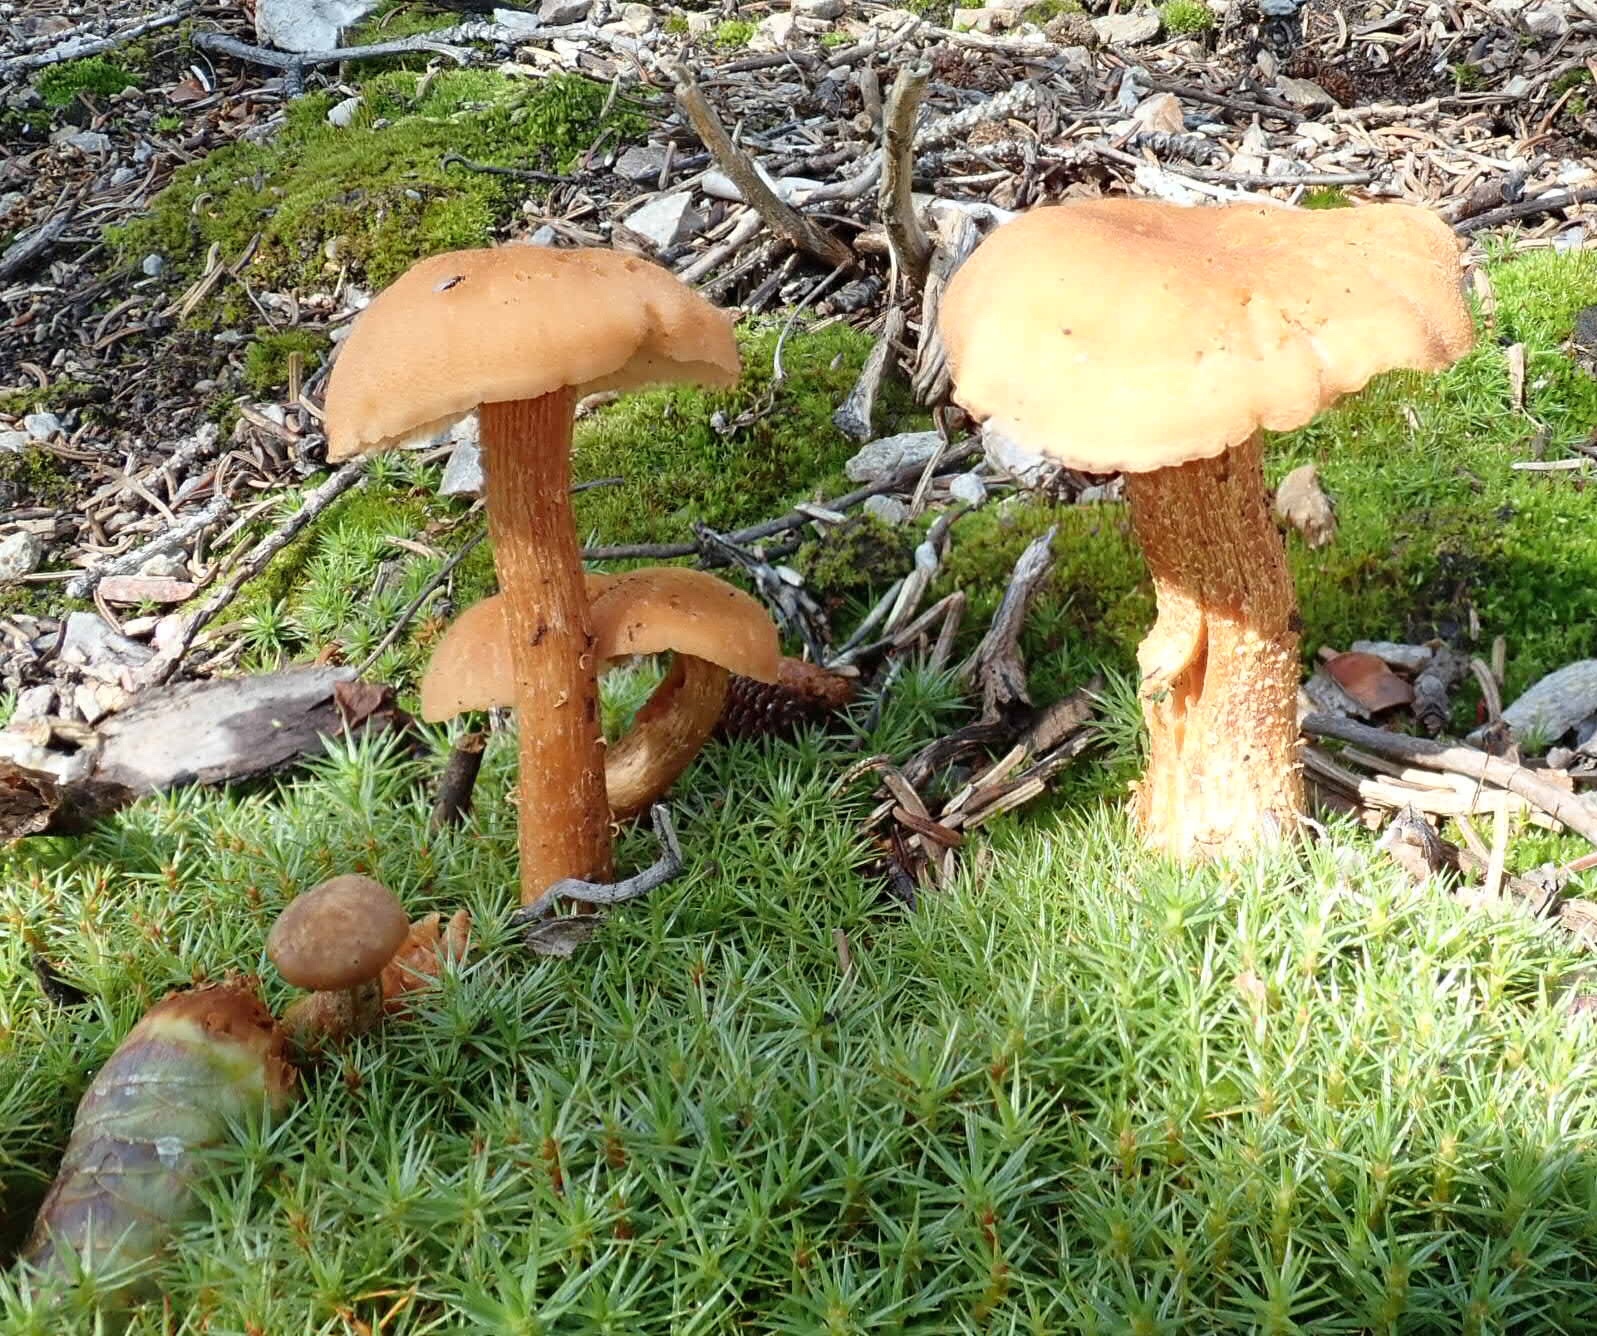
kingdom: Fungi
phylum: Basidiomycota
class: Agaricomycetes
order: Agaricales
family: Hydnangiaceae
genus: Laccaria
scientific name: Laccaria laccata
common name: Deceiver
